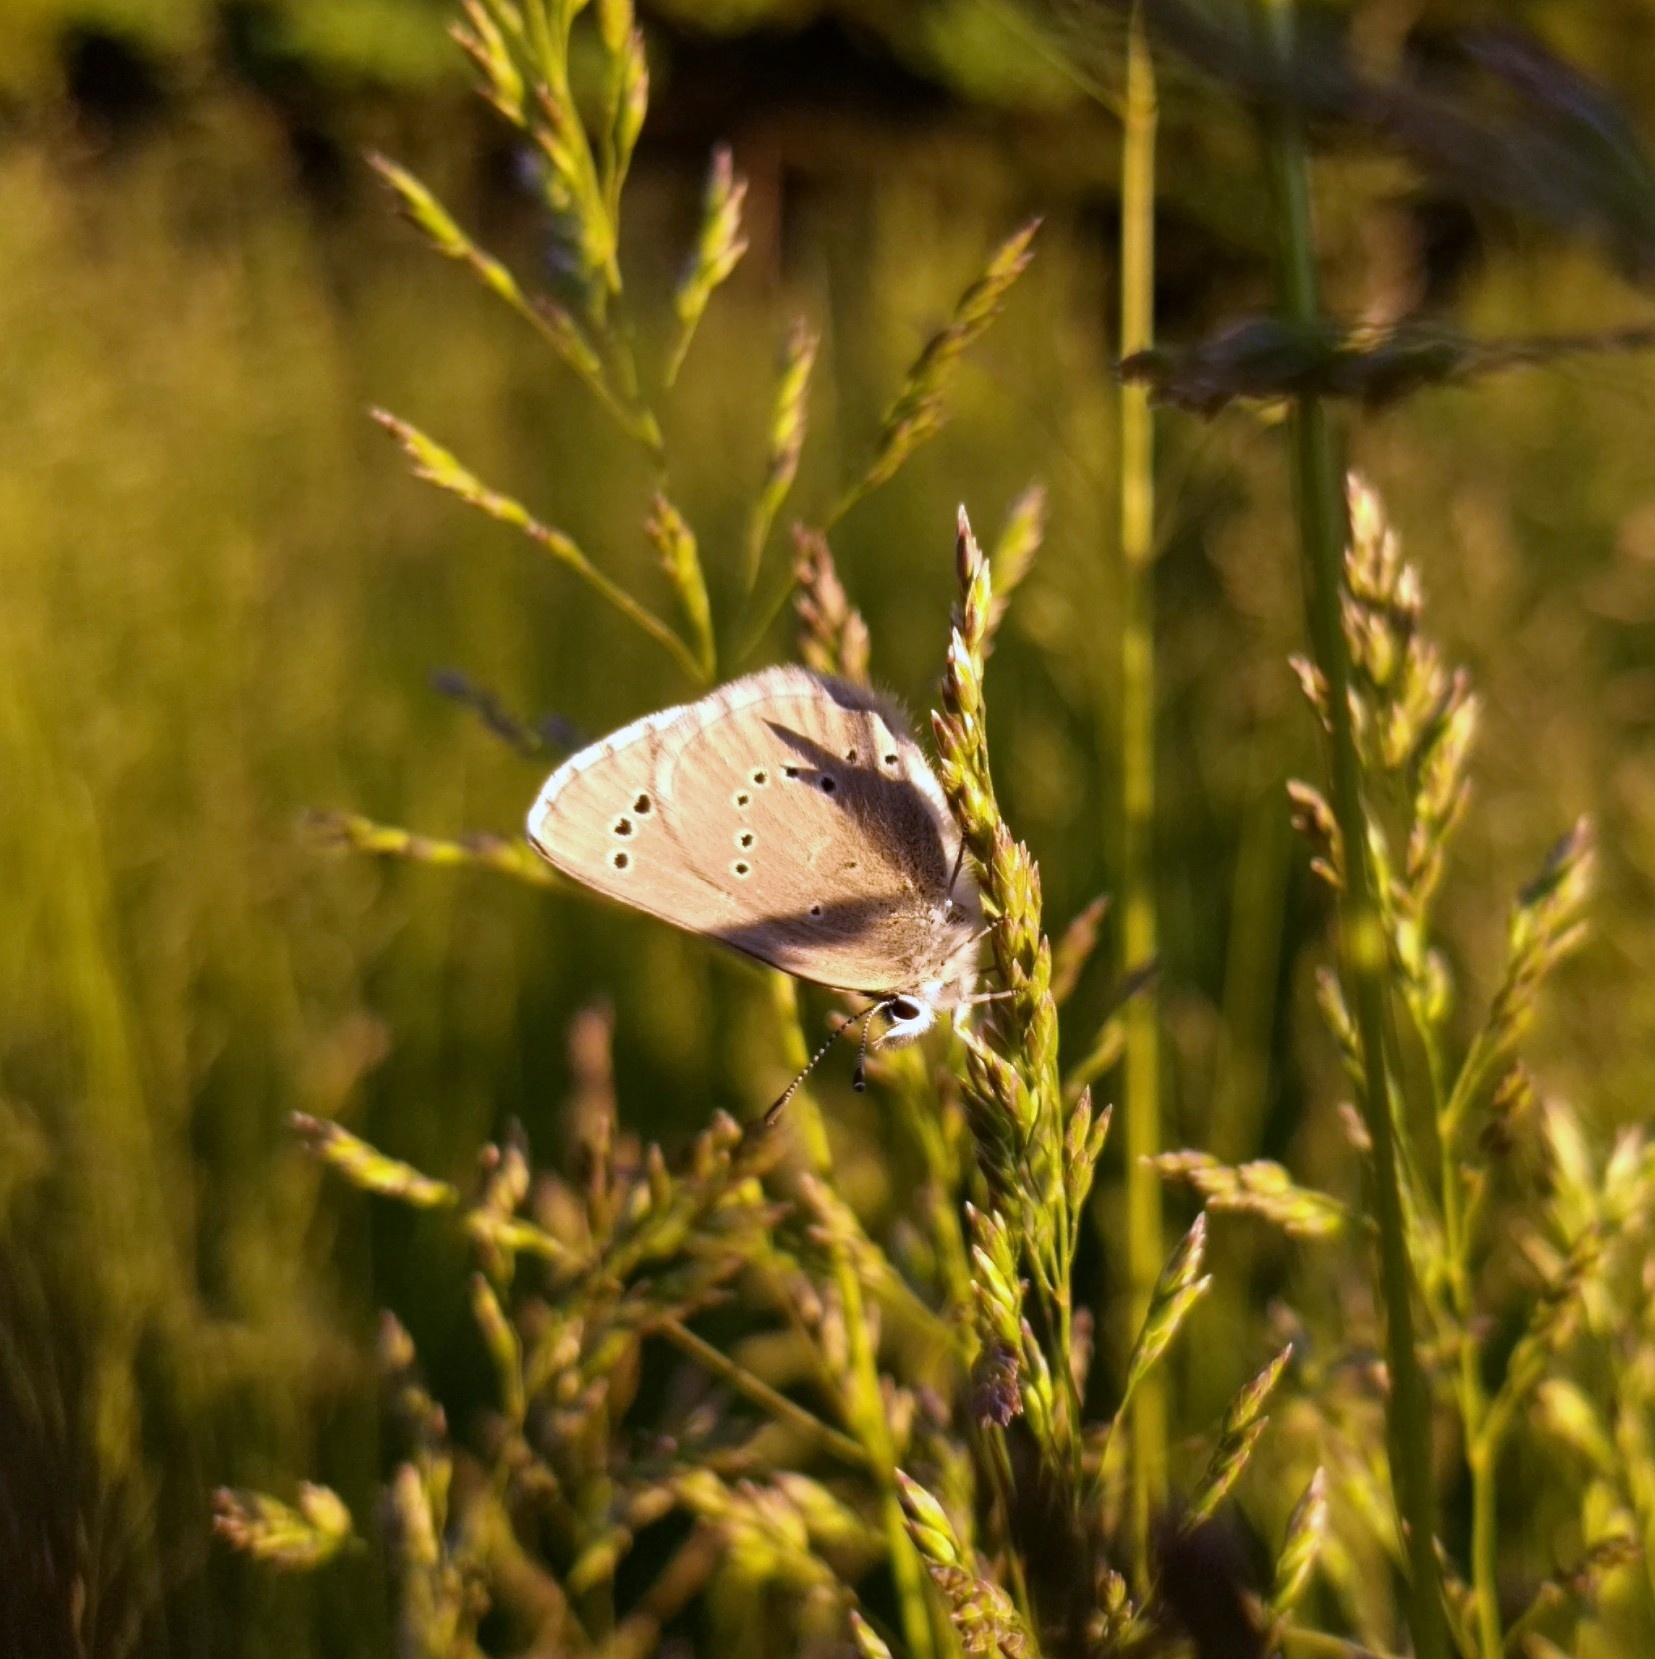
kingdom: Animalia
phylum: Arthropoda
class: Insecta
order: Lepidoptera
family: Lycaenidae
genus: Glaucopsyche
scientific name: Glaucopsyche lygdamus
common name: Silvery blue
